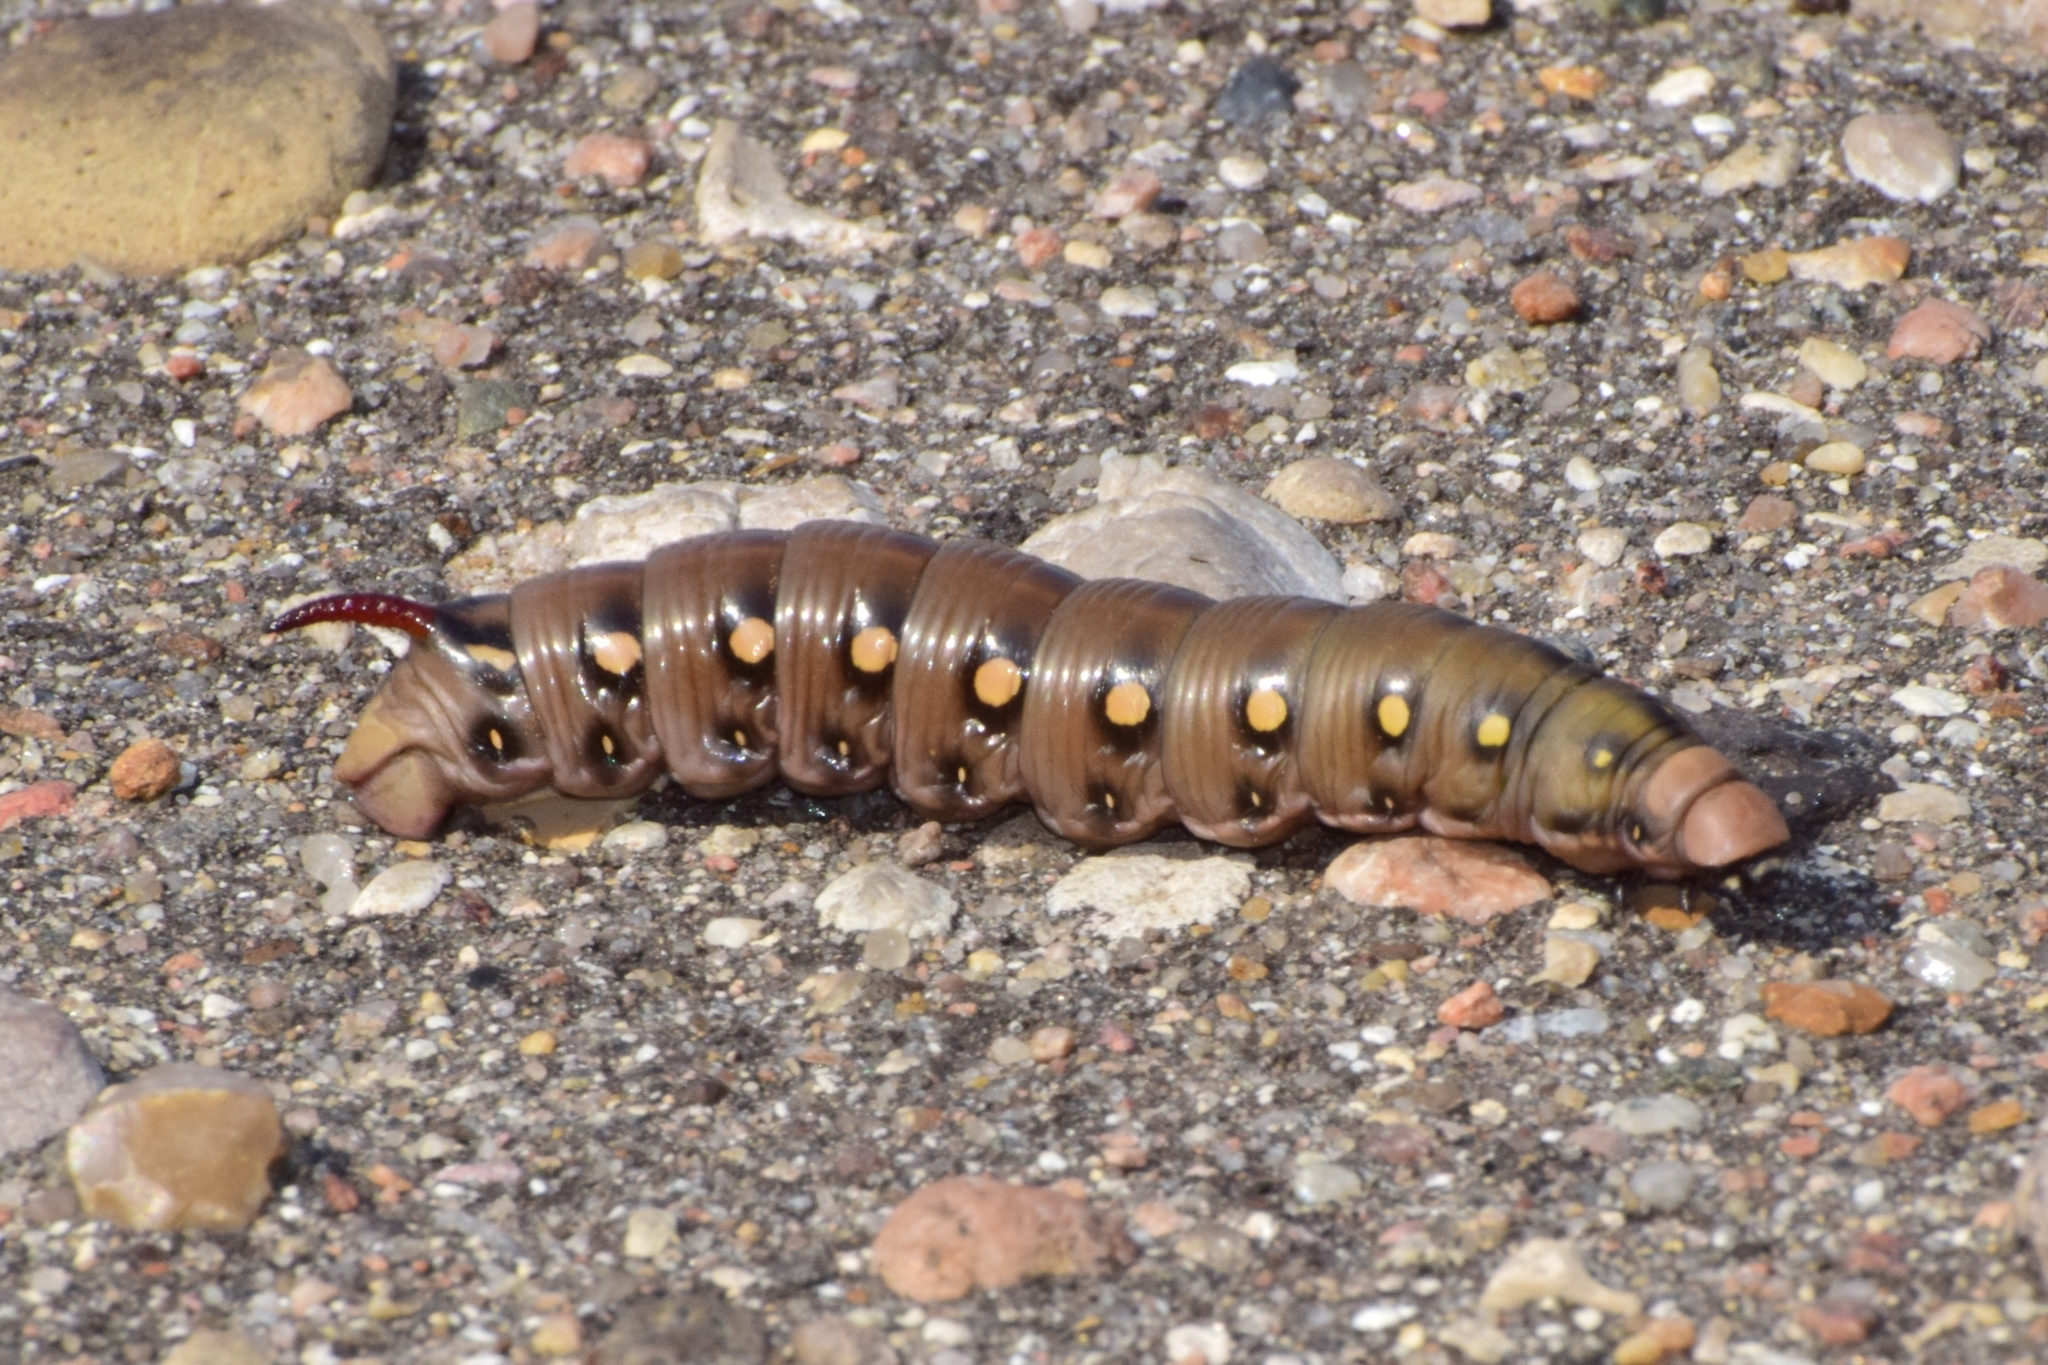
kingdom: Animalia
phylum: Arthropoda
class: Insecta
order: Lepidoptera
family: Sphingidae
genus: Hyles
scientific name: Hyles gallii
